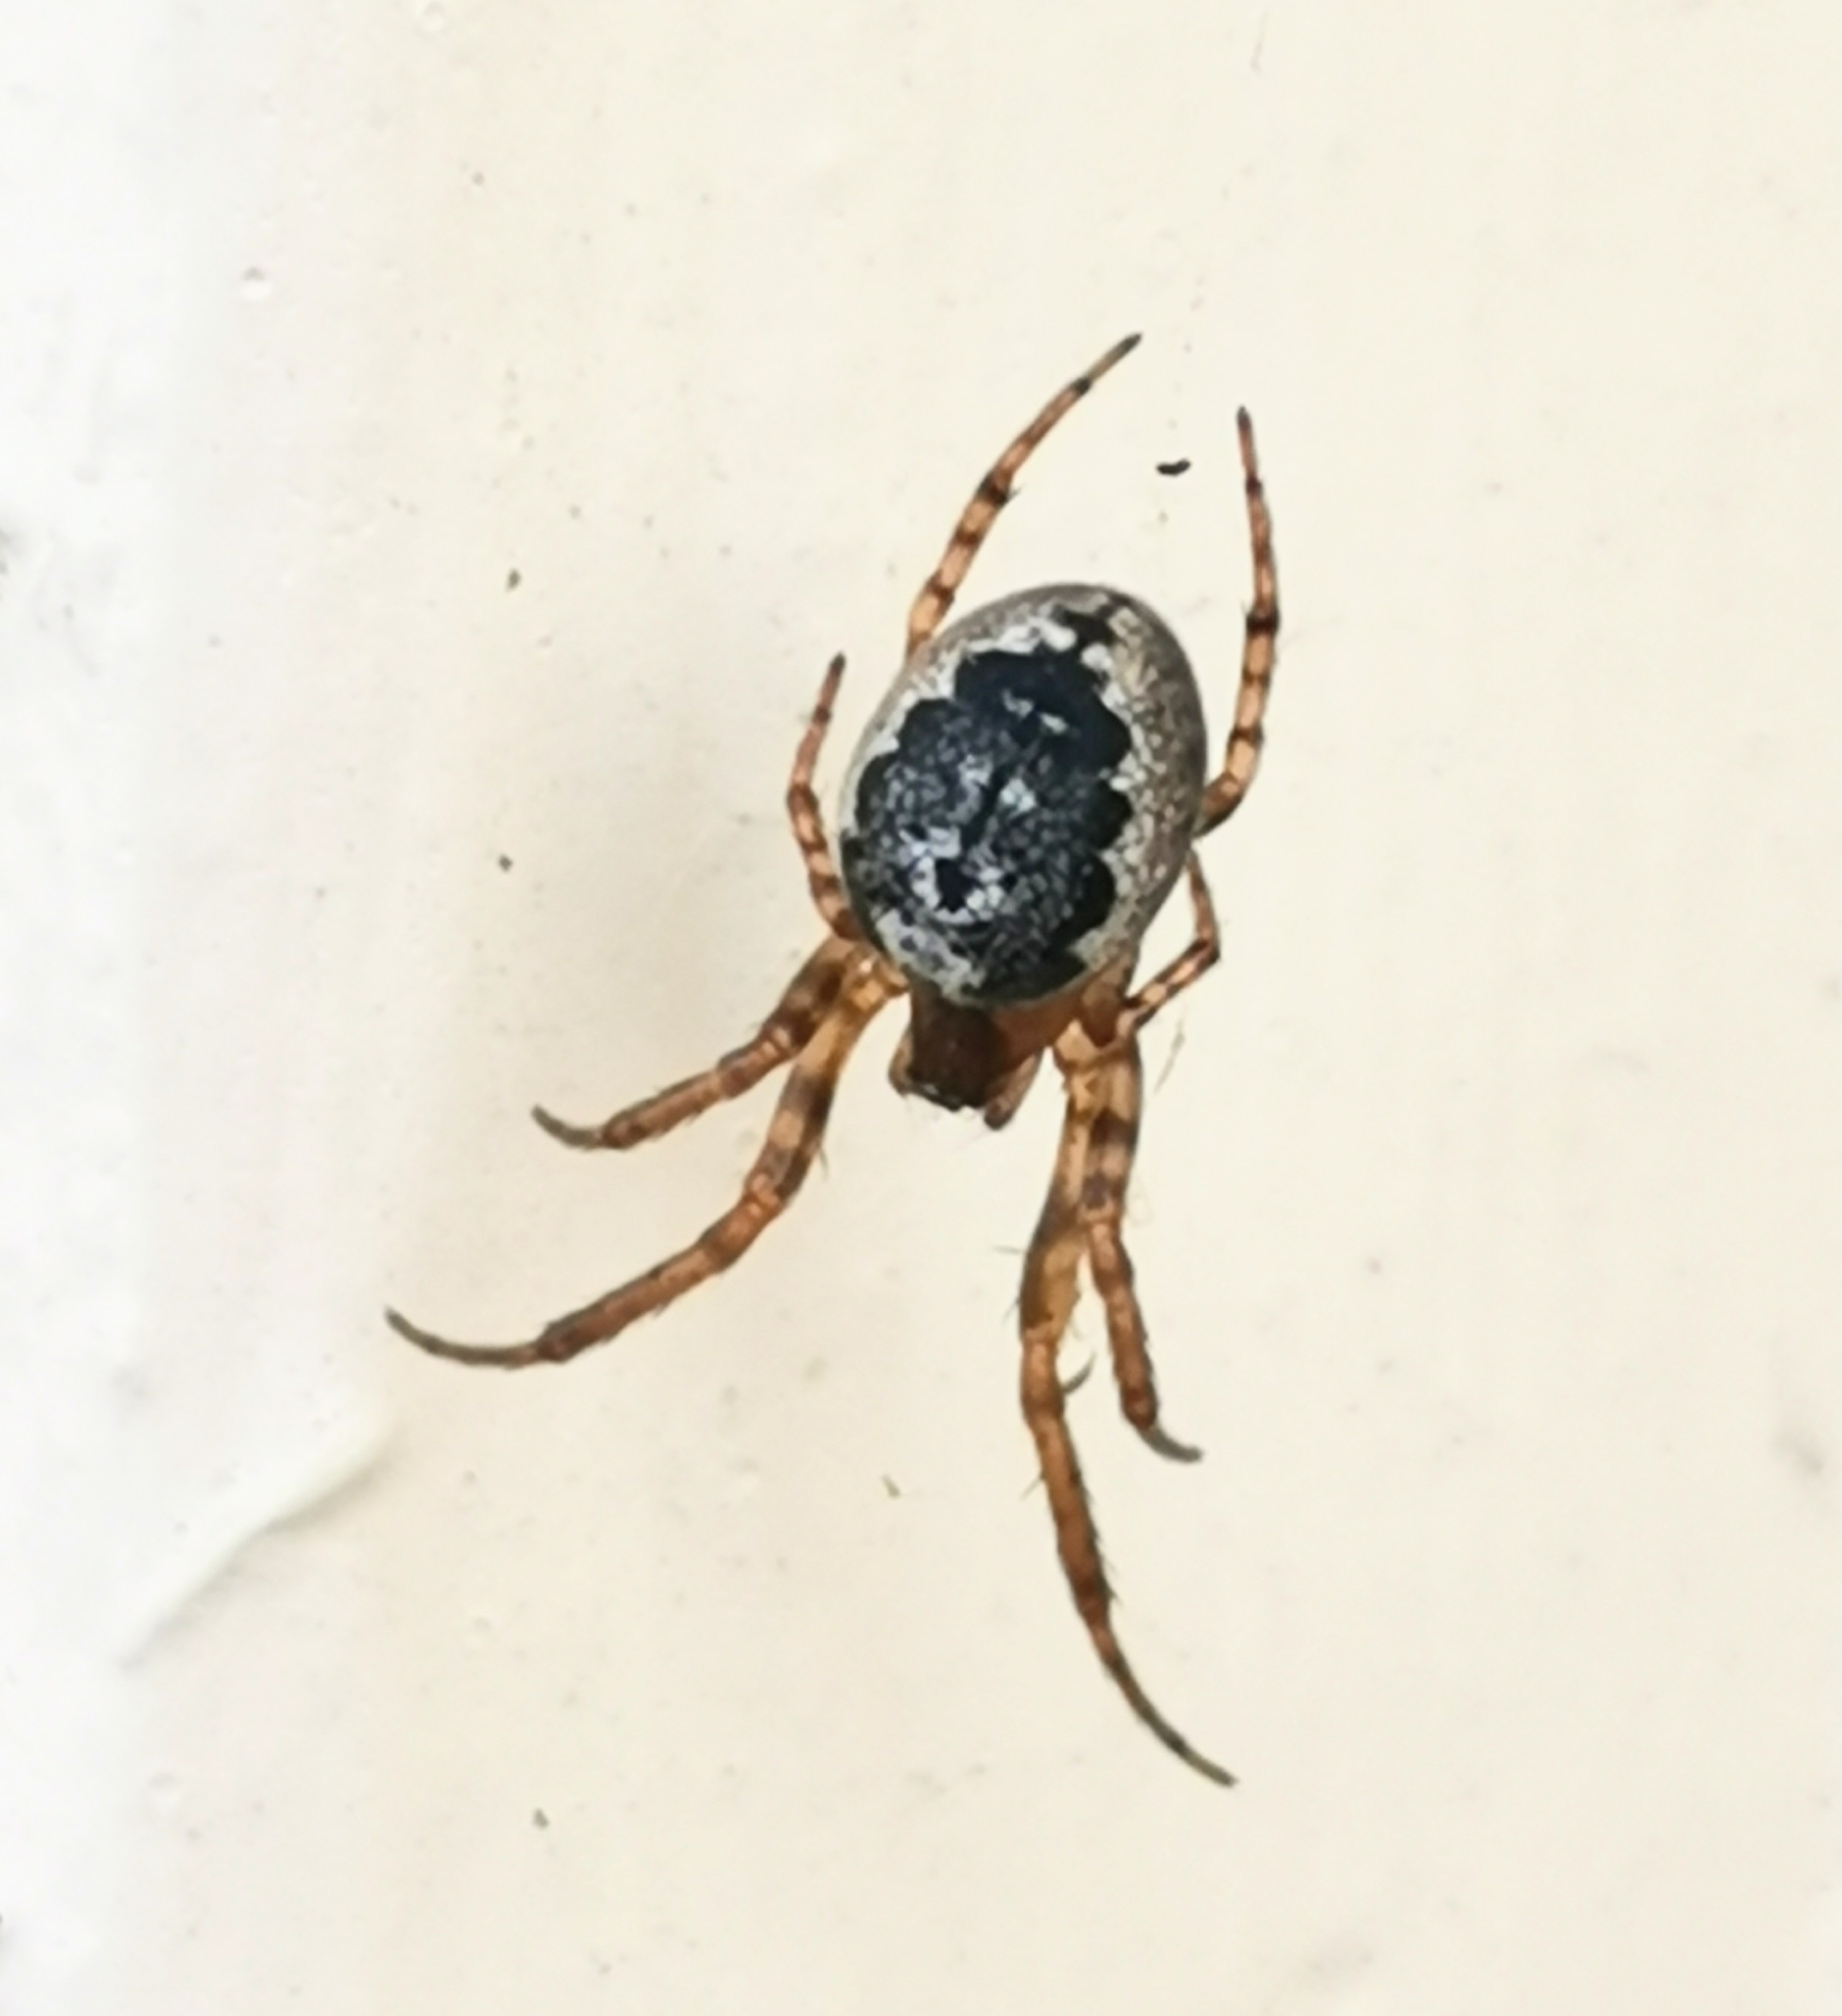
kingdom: Animalia
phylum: Arthropoda
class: Arachnida
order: Araneae
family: Araneidae
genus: Leviellus
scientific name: Leviellus stroemi
